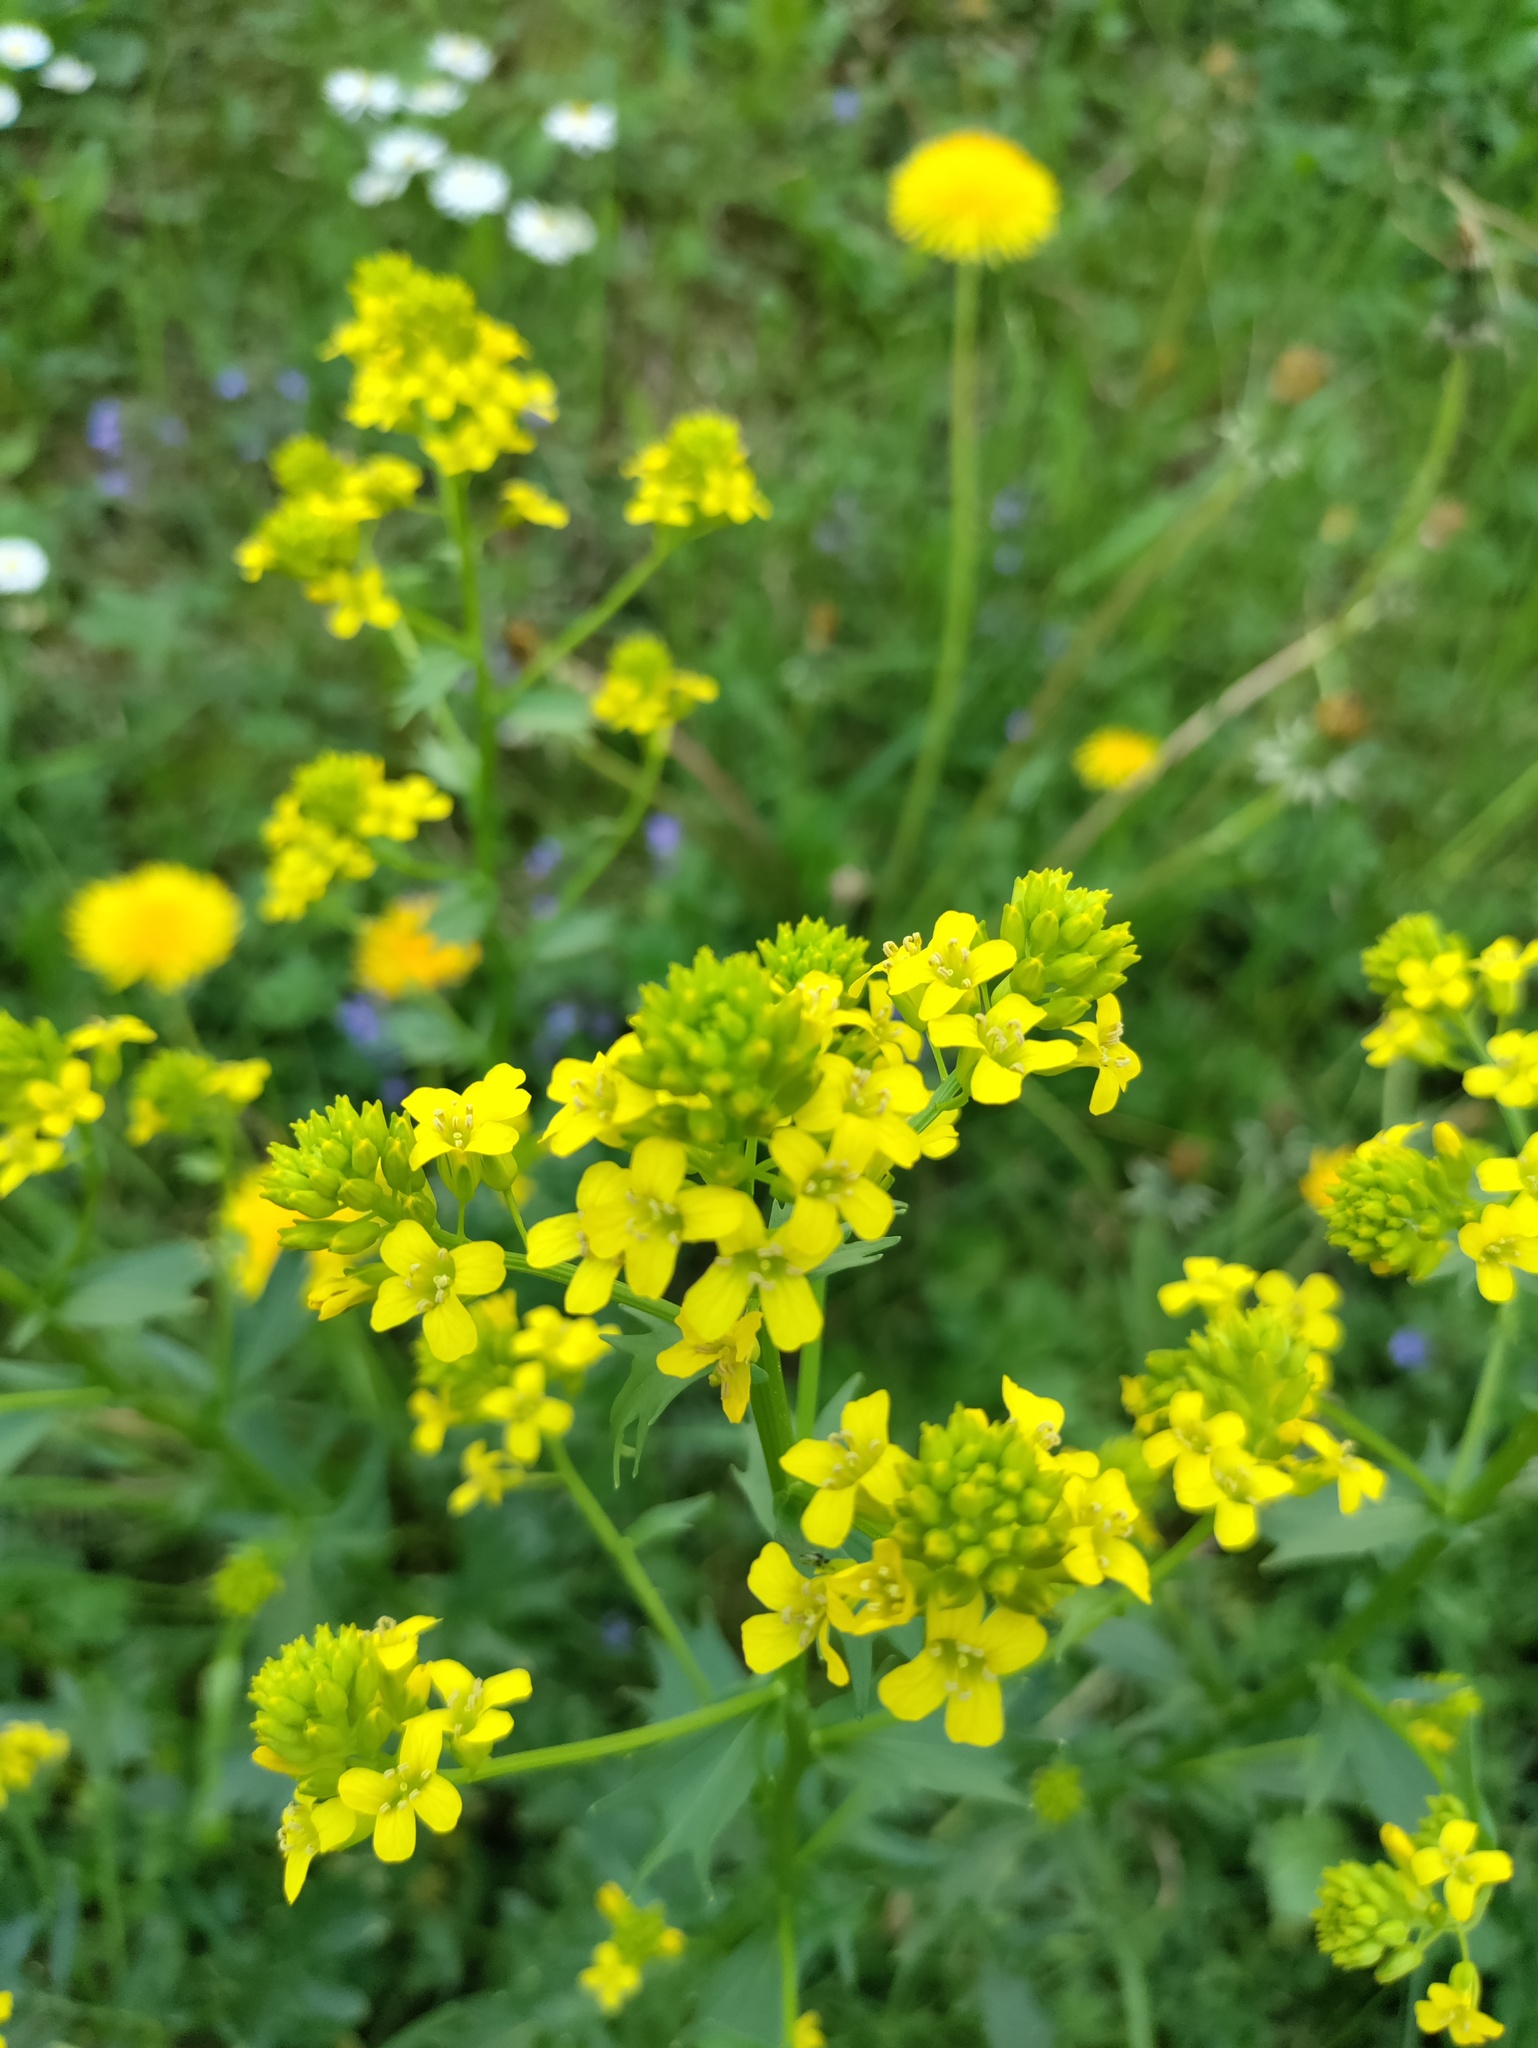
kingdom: Plantae
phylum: Tracheophyta
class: Magnoliopsida
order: Brassicales
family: Brassicaceae
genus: Barbarea
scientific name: Barbarea vulgaris
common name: Cressy-greens
